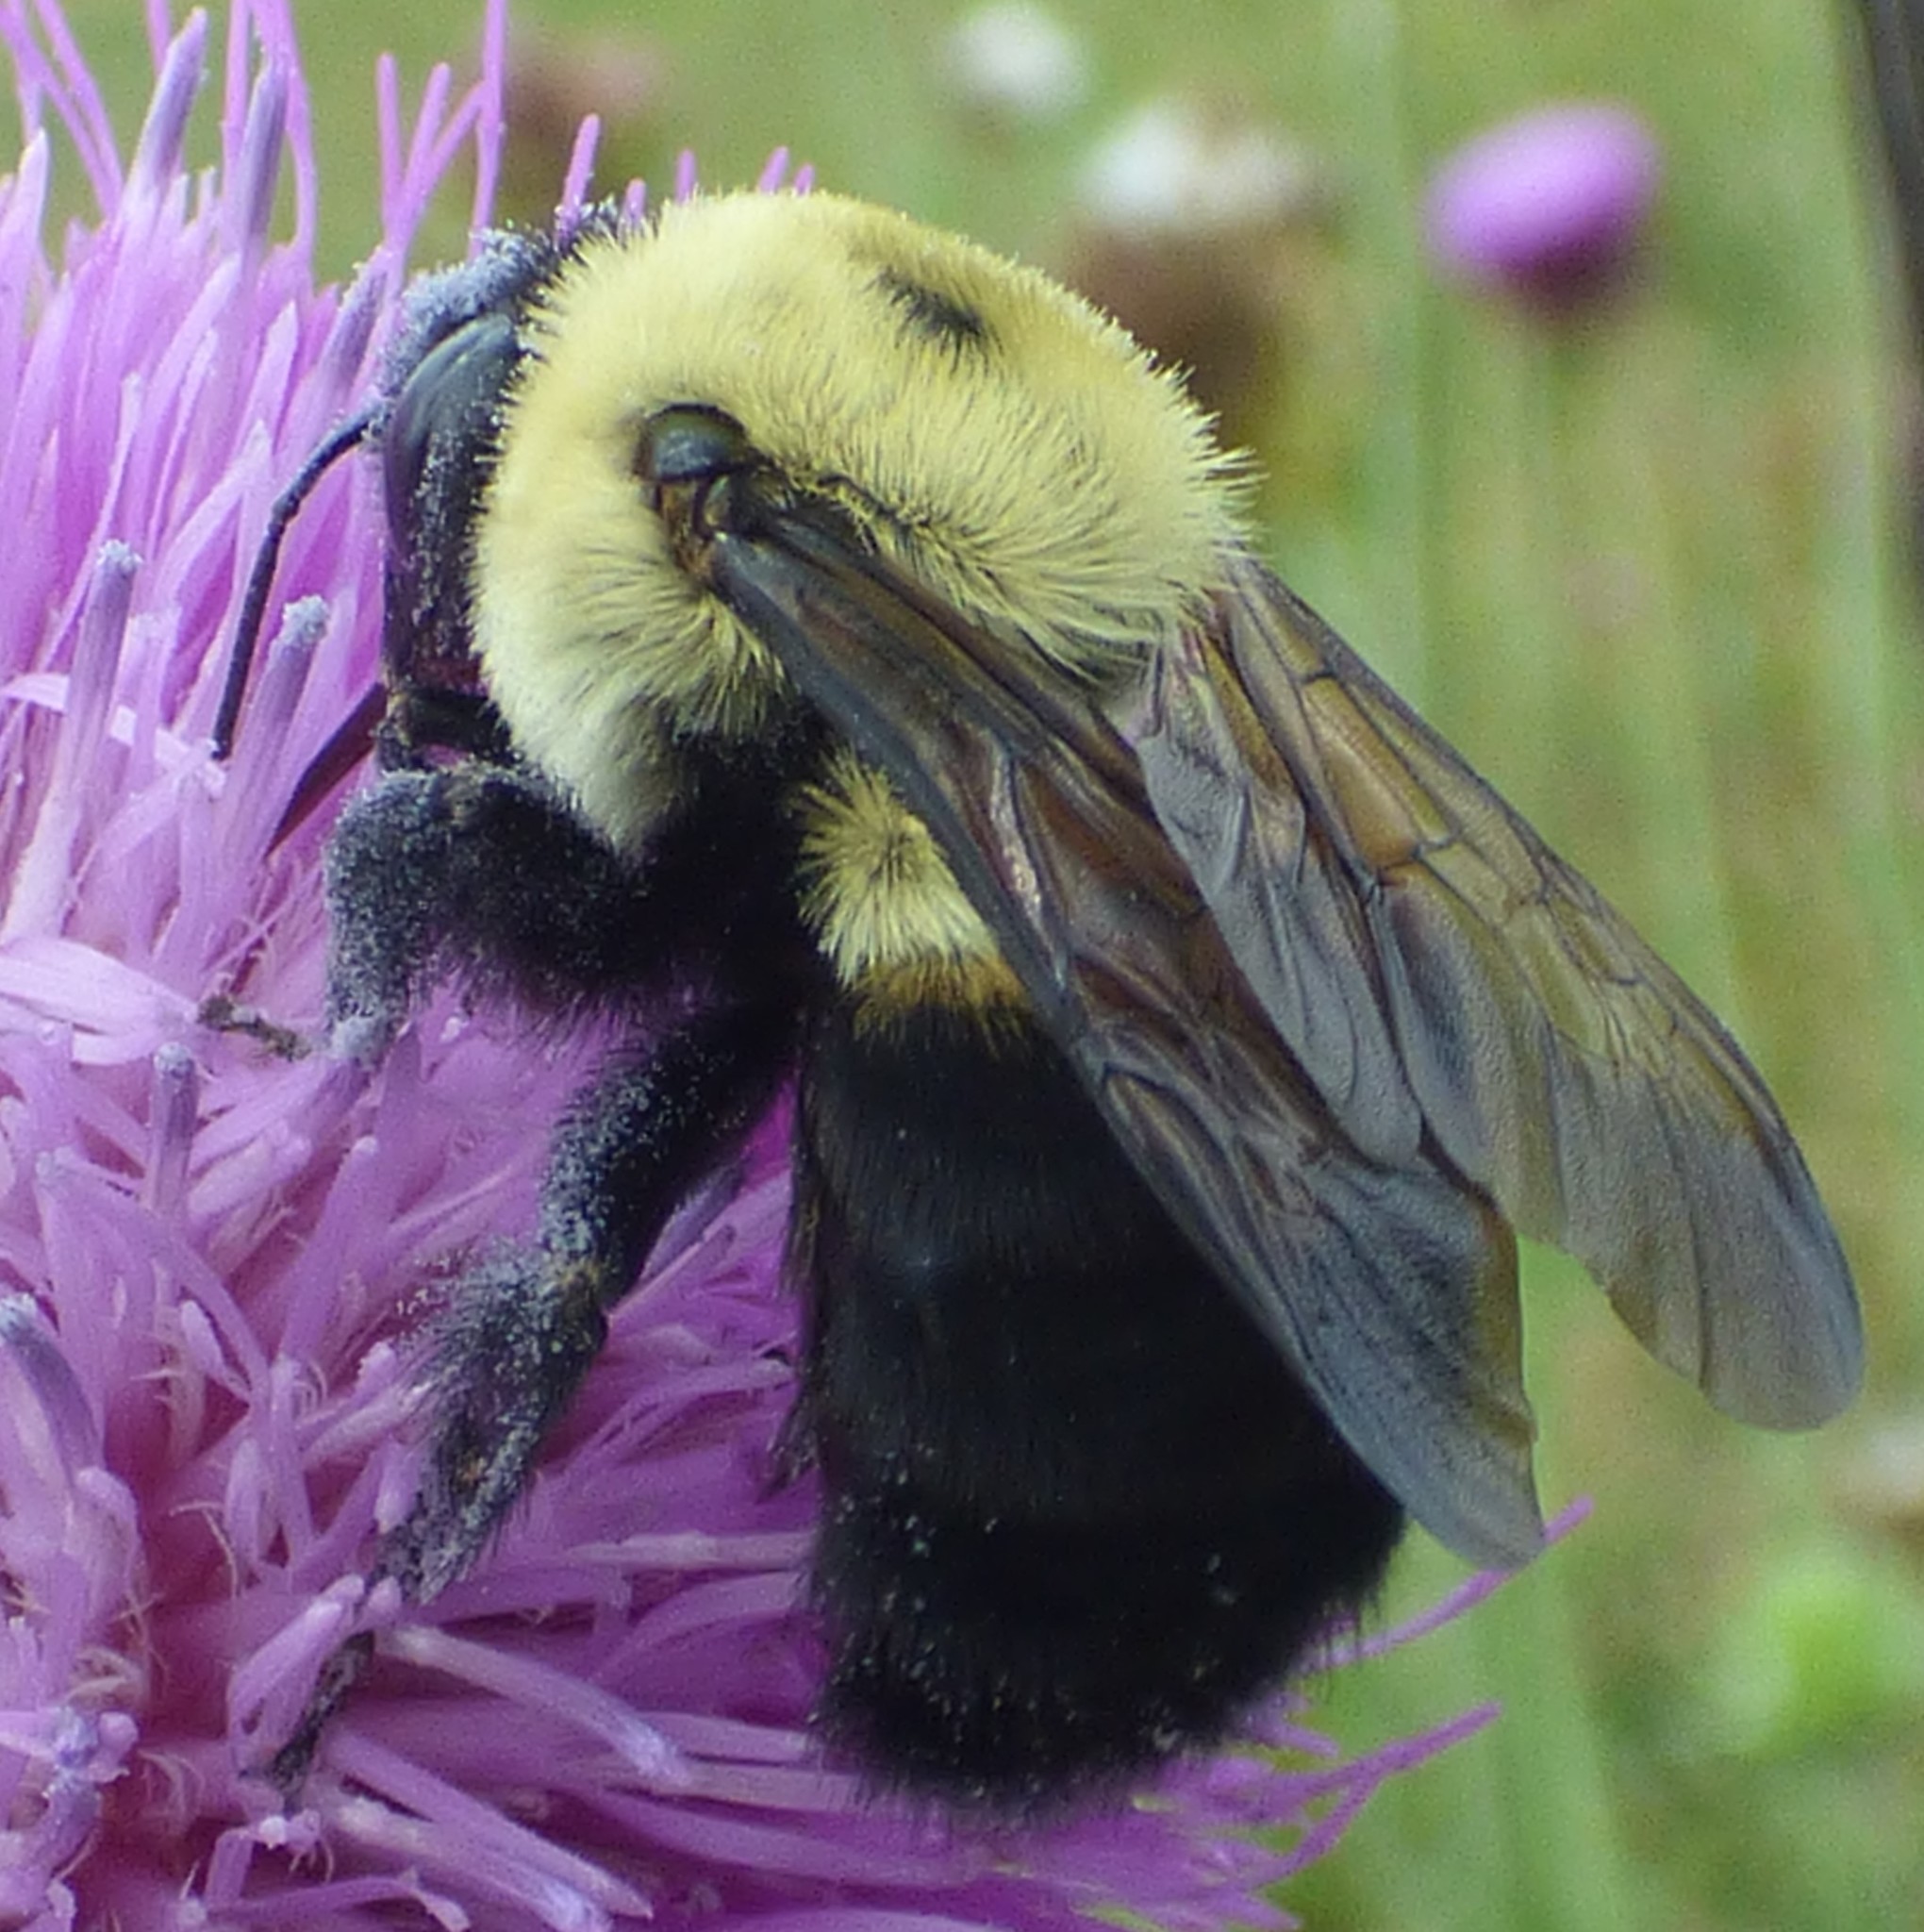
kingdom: Animalia
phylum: Arthropoda
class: Insecta
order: Hymenoptera
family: Apidae
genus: Bombus
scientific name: Bombus griseocollis
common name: Brown-belted bumble bee
